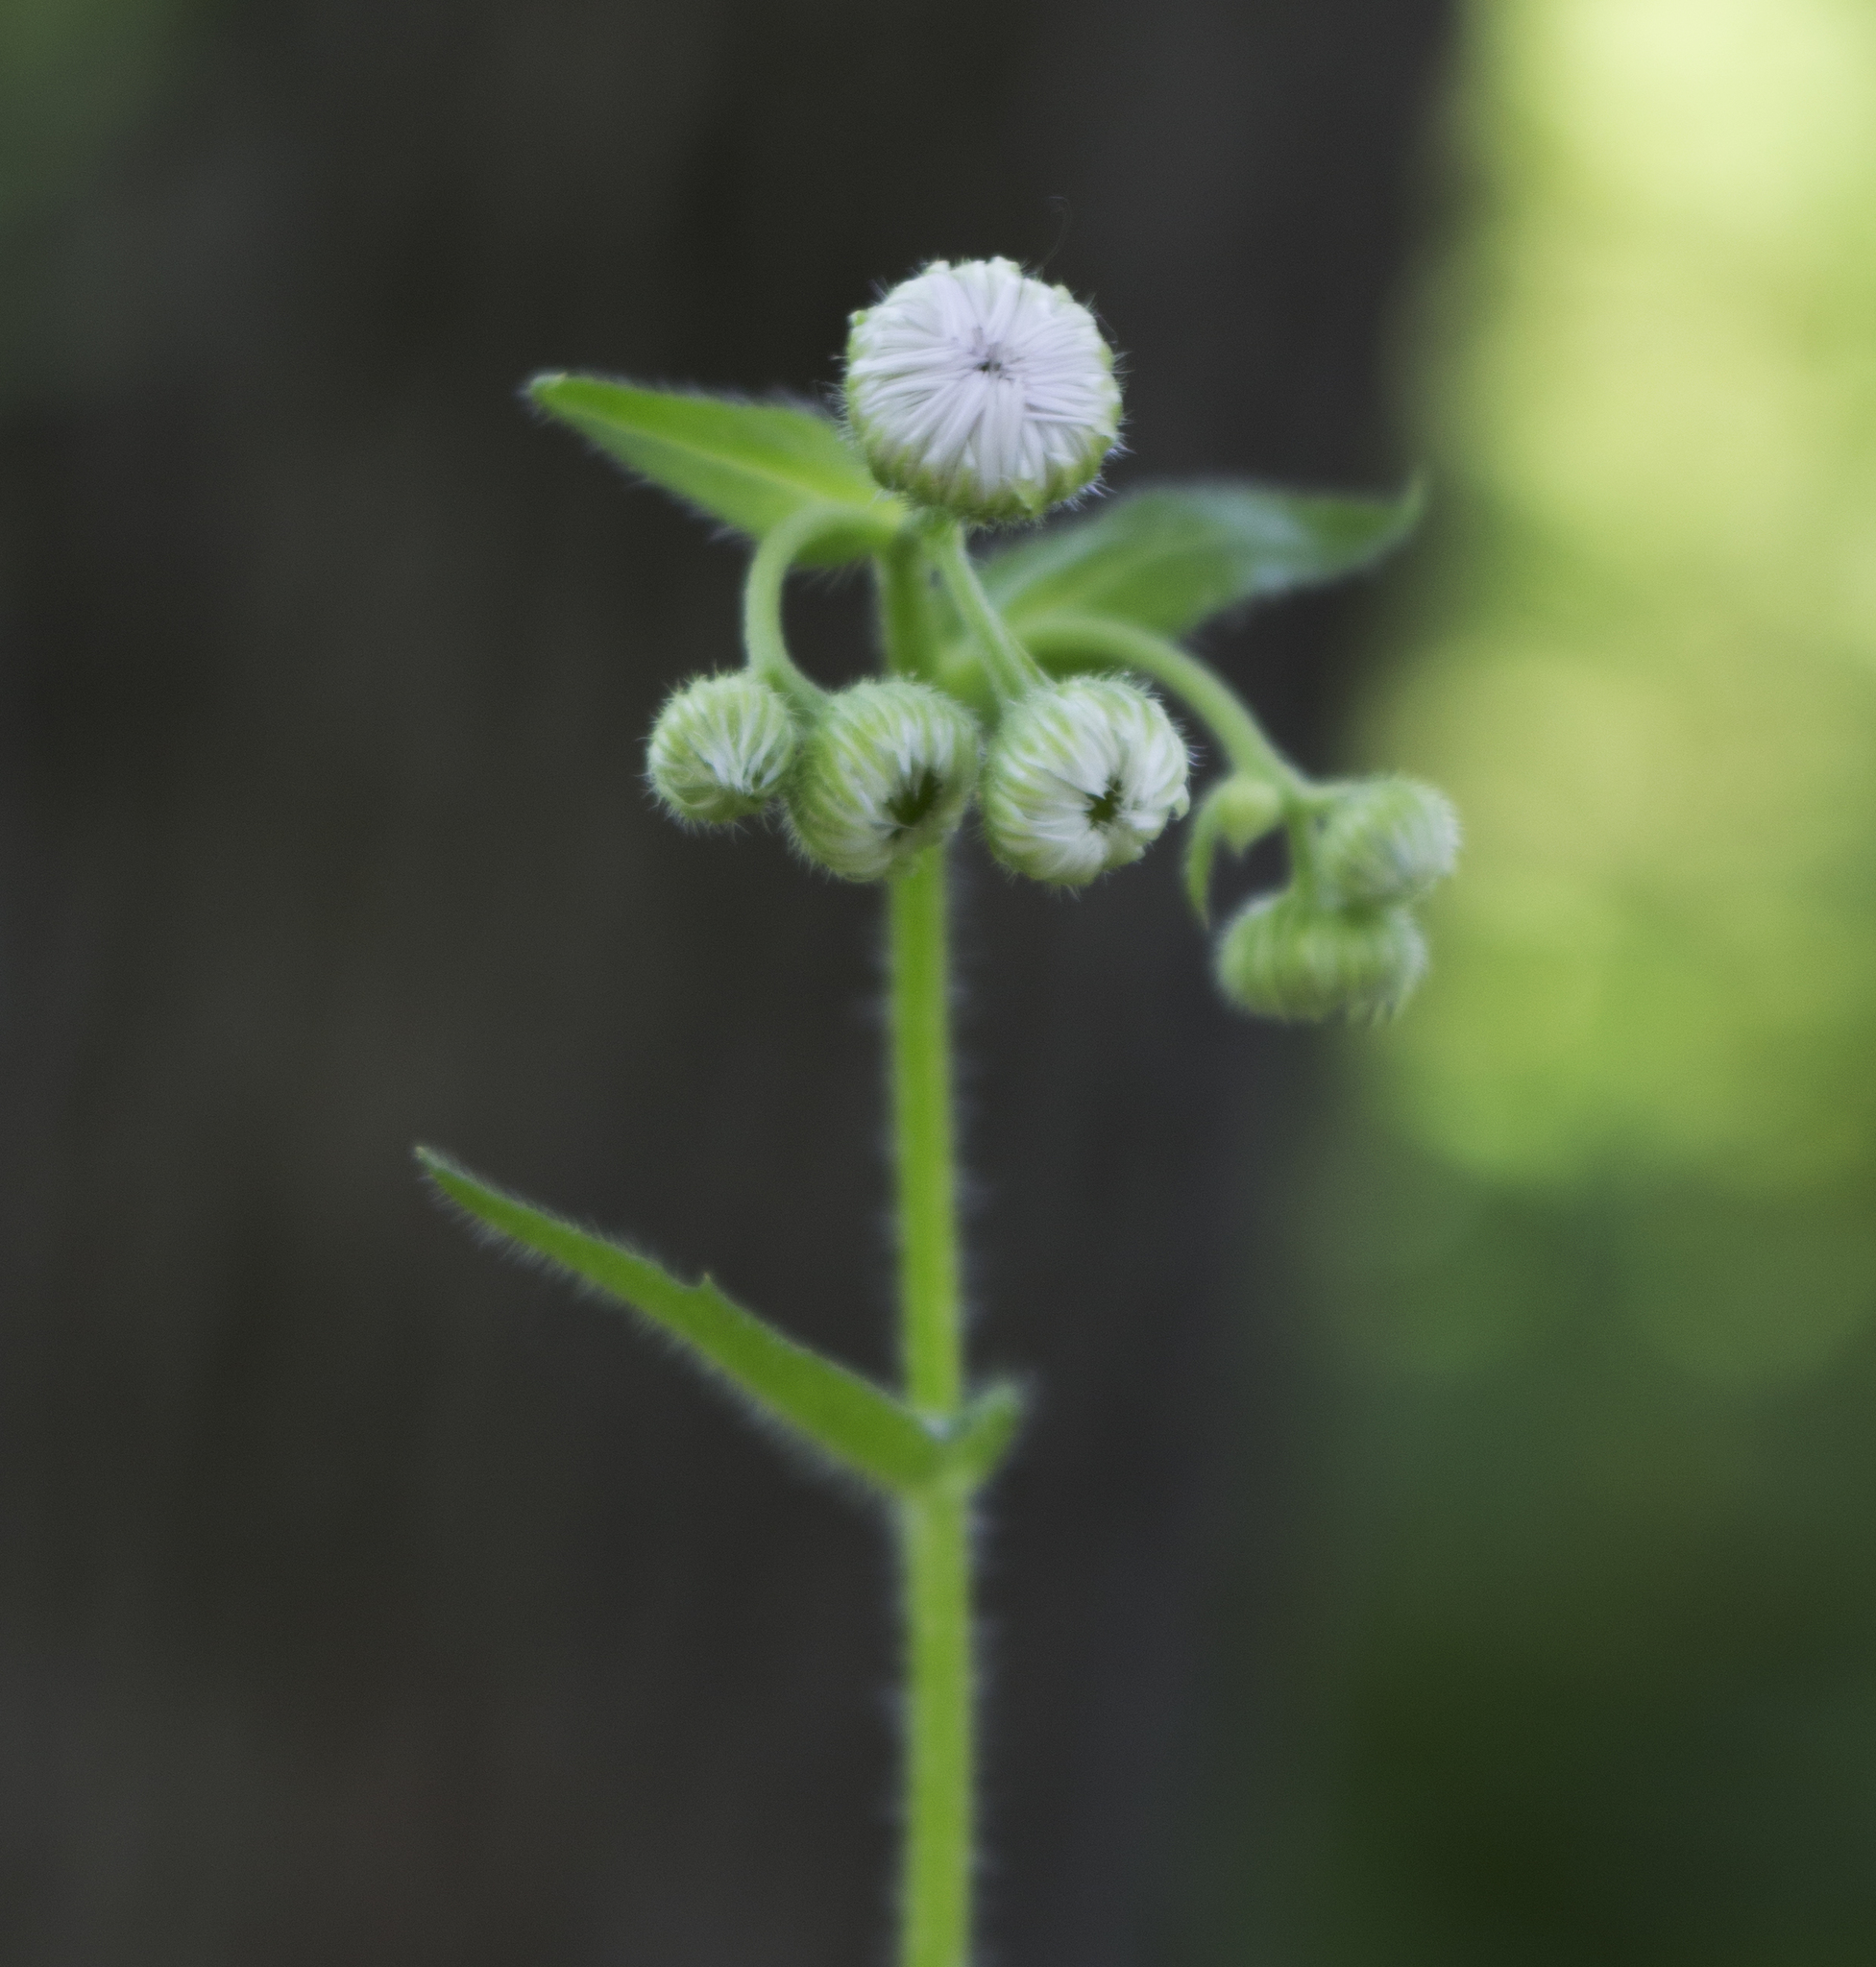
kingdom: Plantae
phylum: Tracheophyta
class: Magnoliopsida
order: Asterales
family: Asteraceae
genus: Erigeron
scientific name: Erigeron philadelphicus
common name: Robin's-plantain
